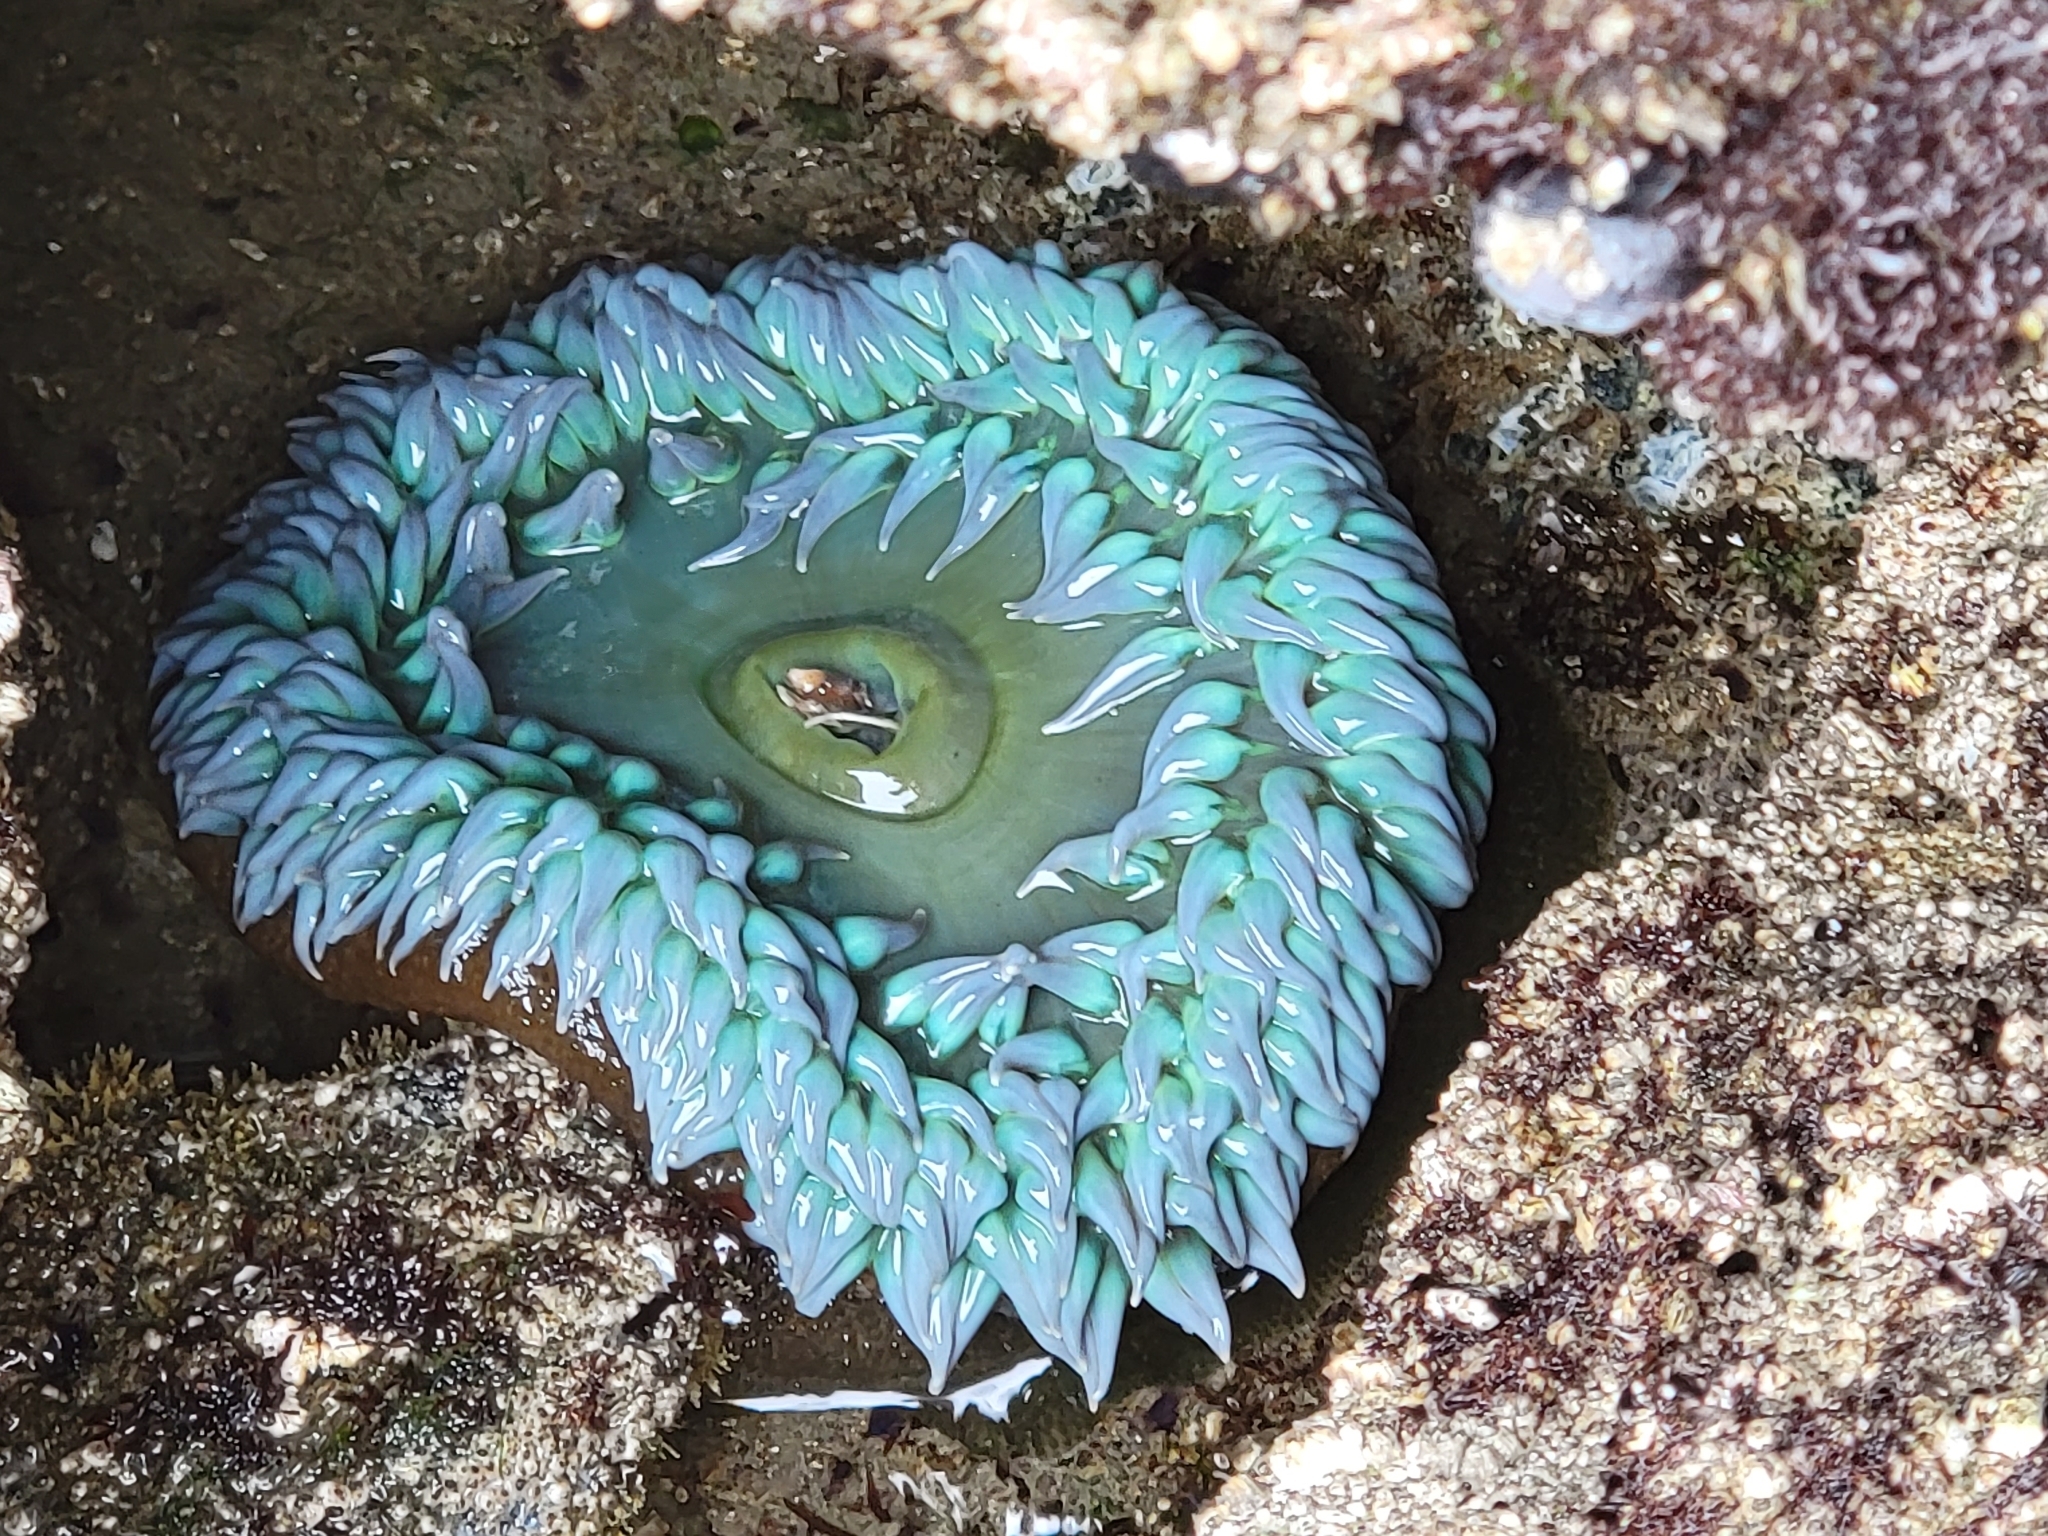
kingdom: Animalia
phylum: Cnidaria
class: Anthozoa
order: Actiniaria
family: Actiniidae
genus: Anthopleura
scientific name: Anthopleura xanthogrammica
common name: Giant green anemone
